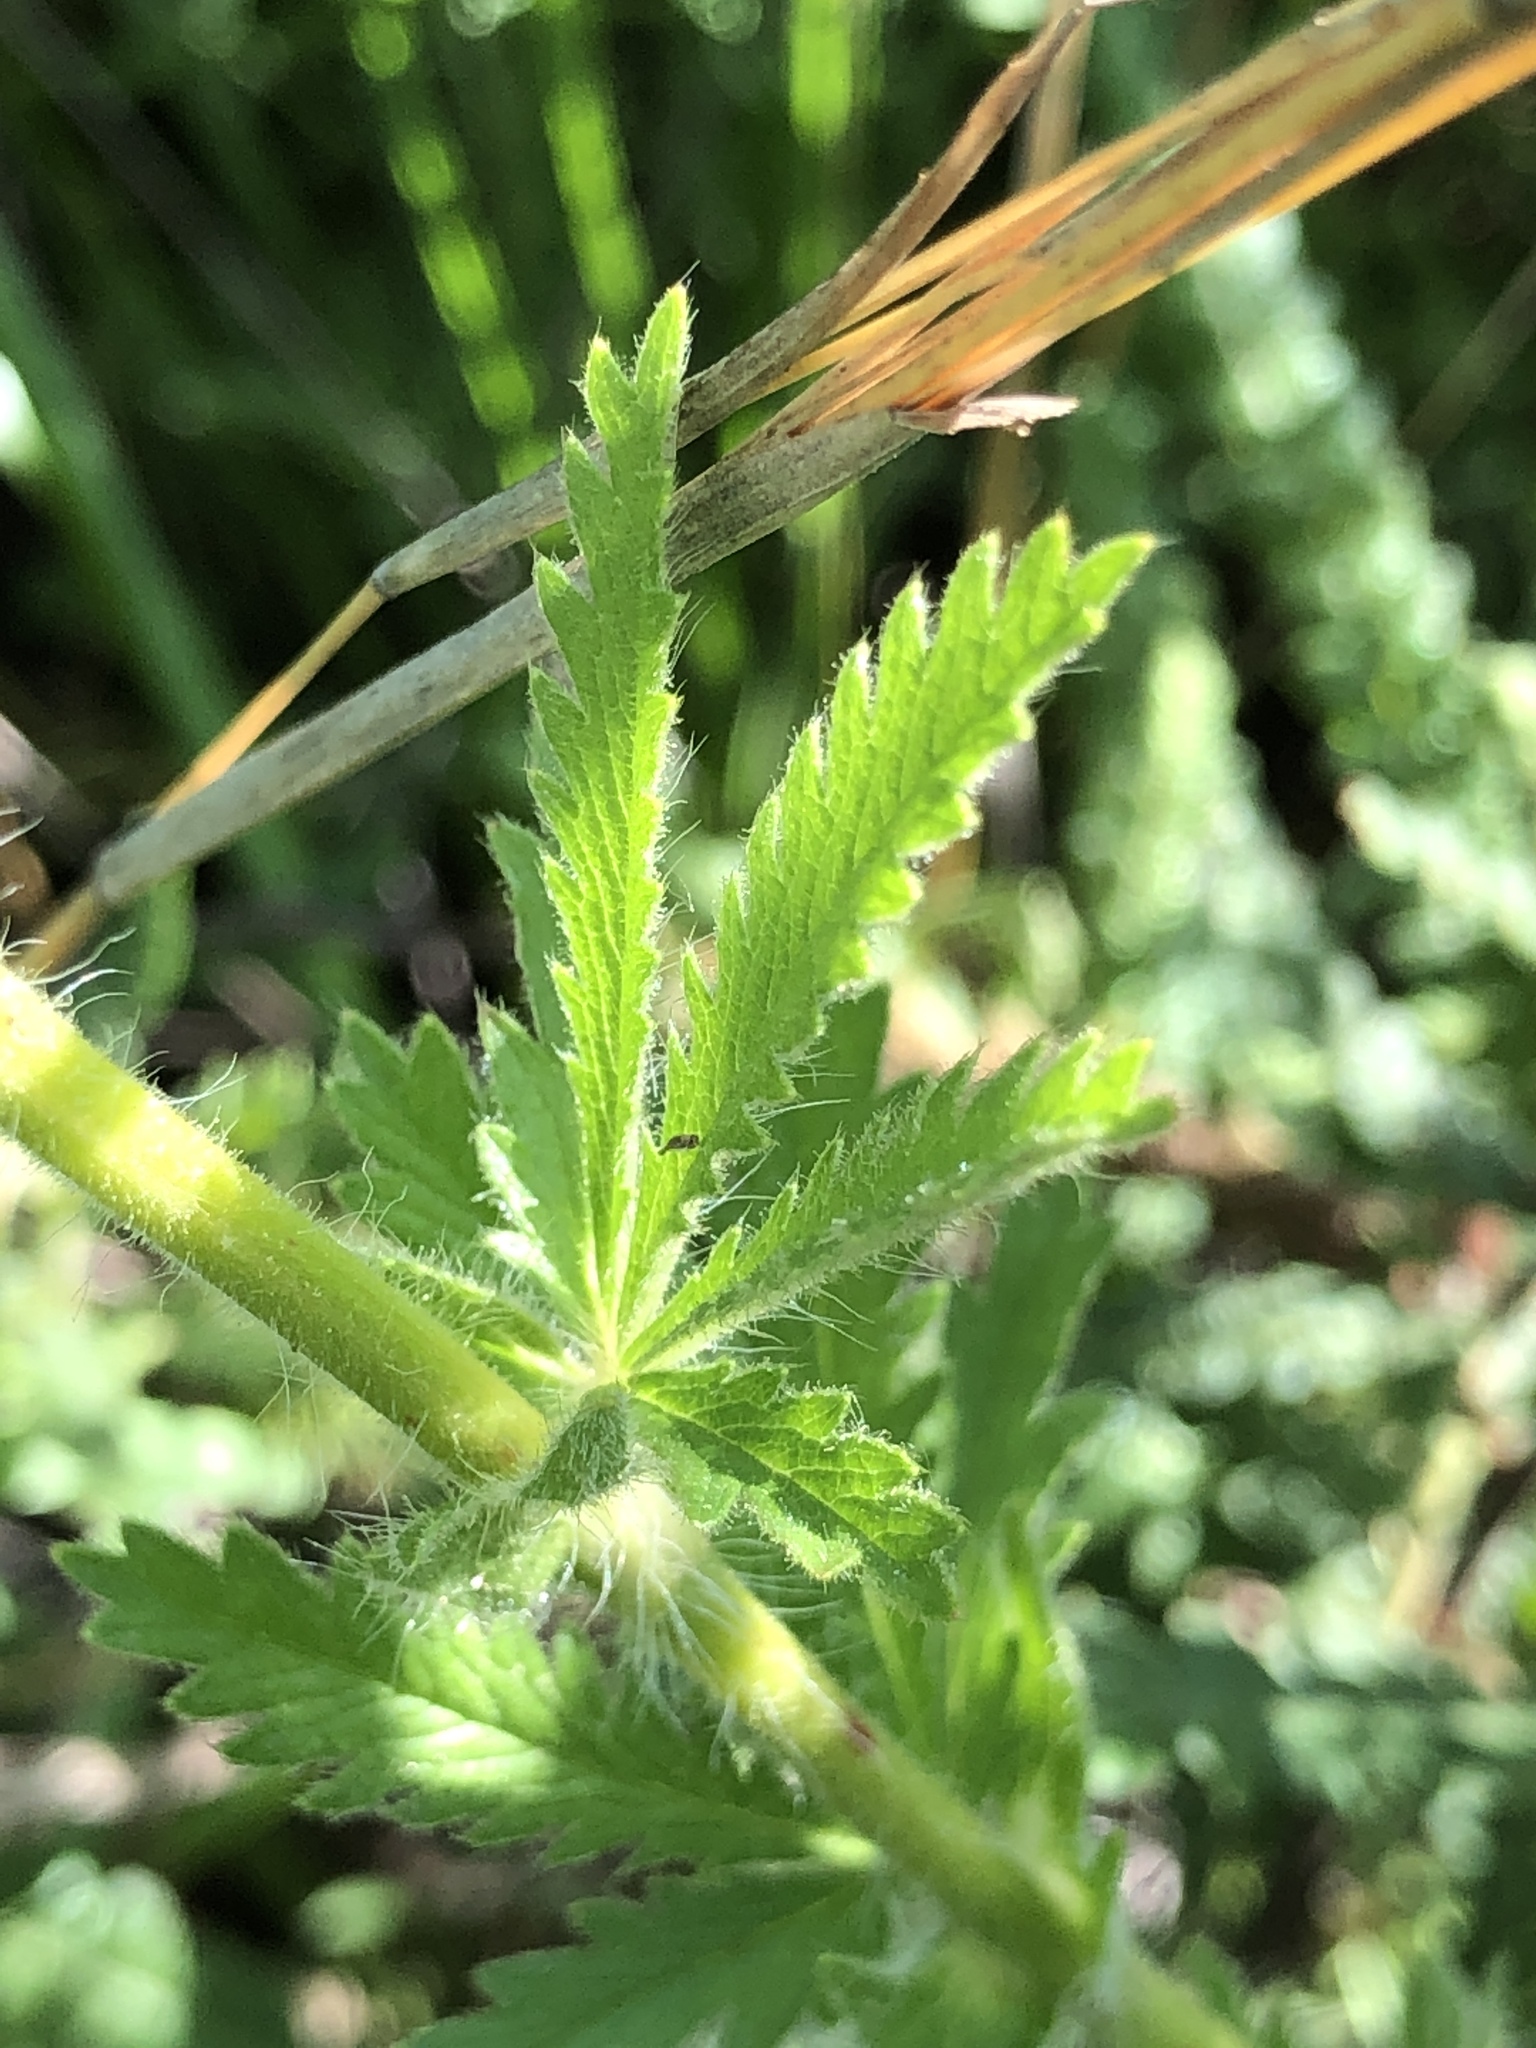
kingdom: Plantae
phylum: Tracheophyta
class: Magnoliopsida
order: Rosales
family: Rosaceae
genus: Potentilla
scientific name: Potentilla recta
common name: Sulphur cinquefoil
